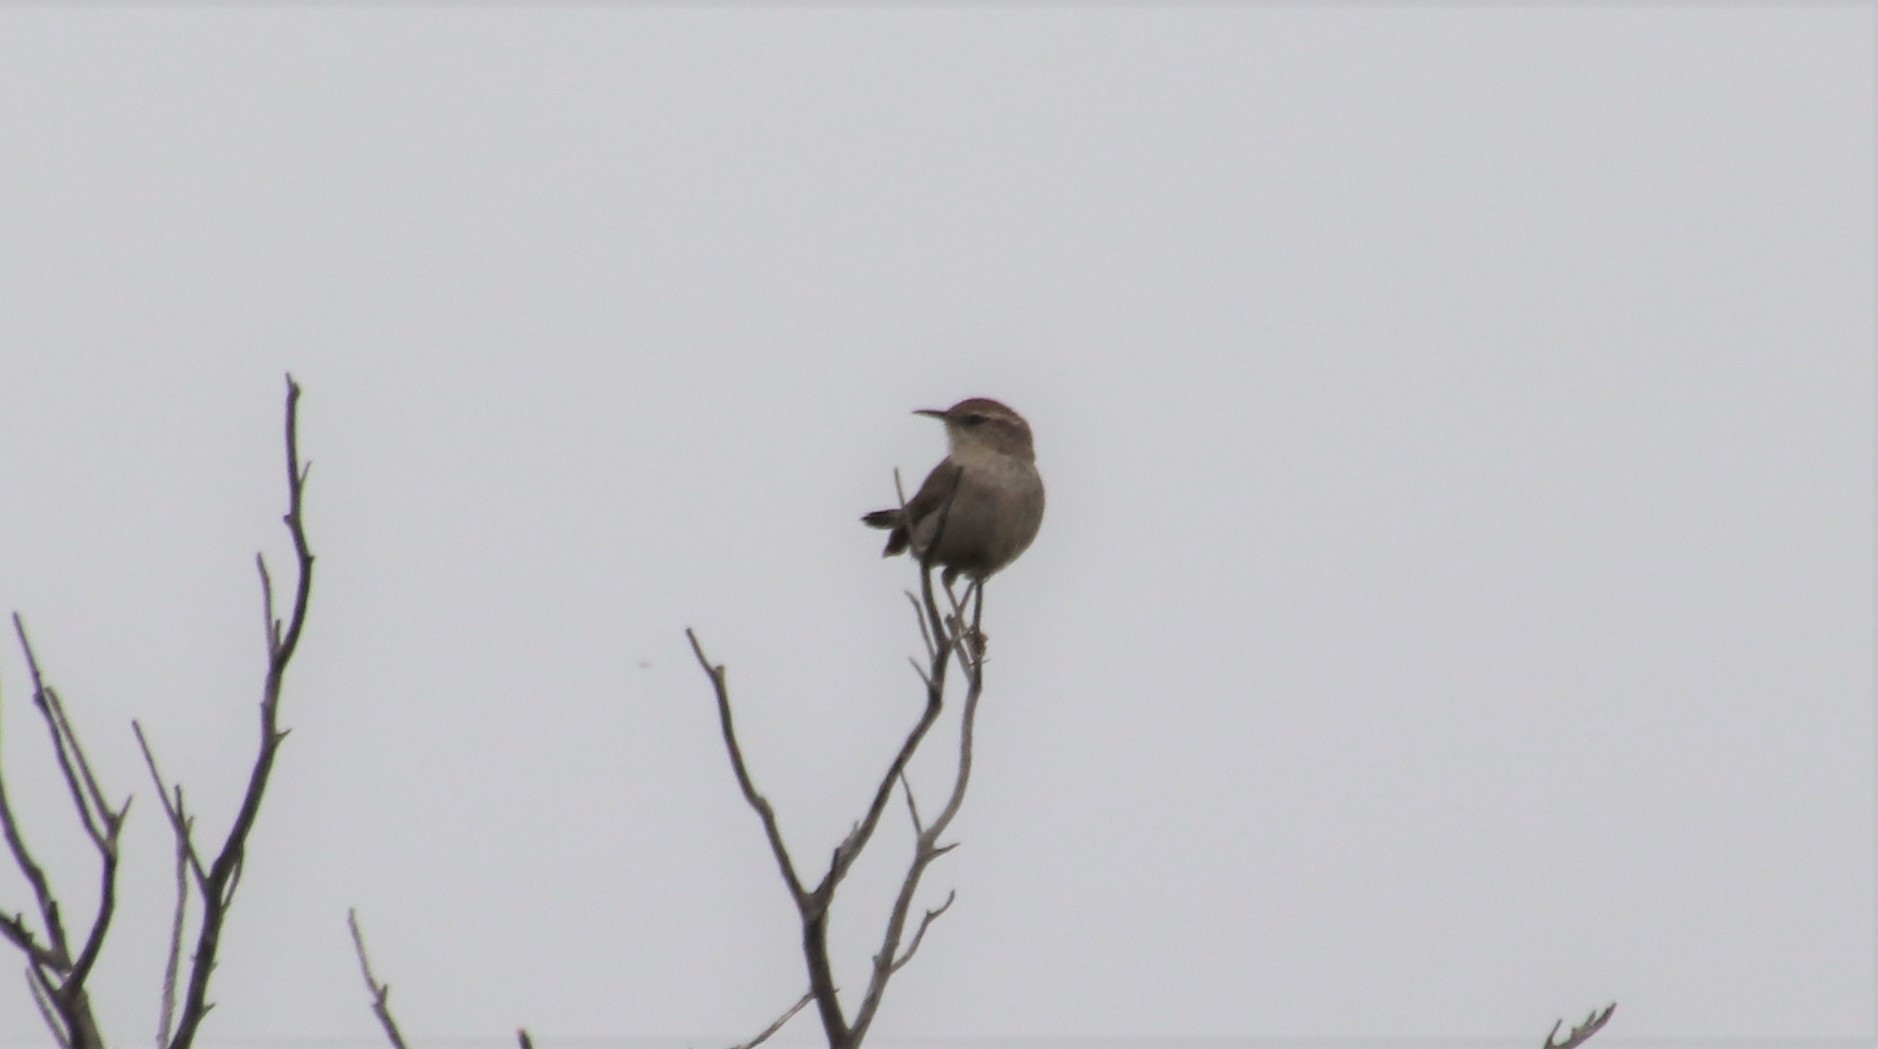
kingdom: Animalia
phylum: Chordata
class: Aves
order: Passeriformes
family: Troglodytidae
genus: Thryomanes
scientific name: Thryomanes bewickii
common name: Bewick's wren
